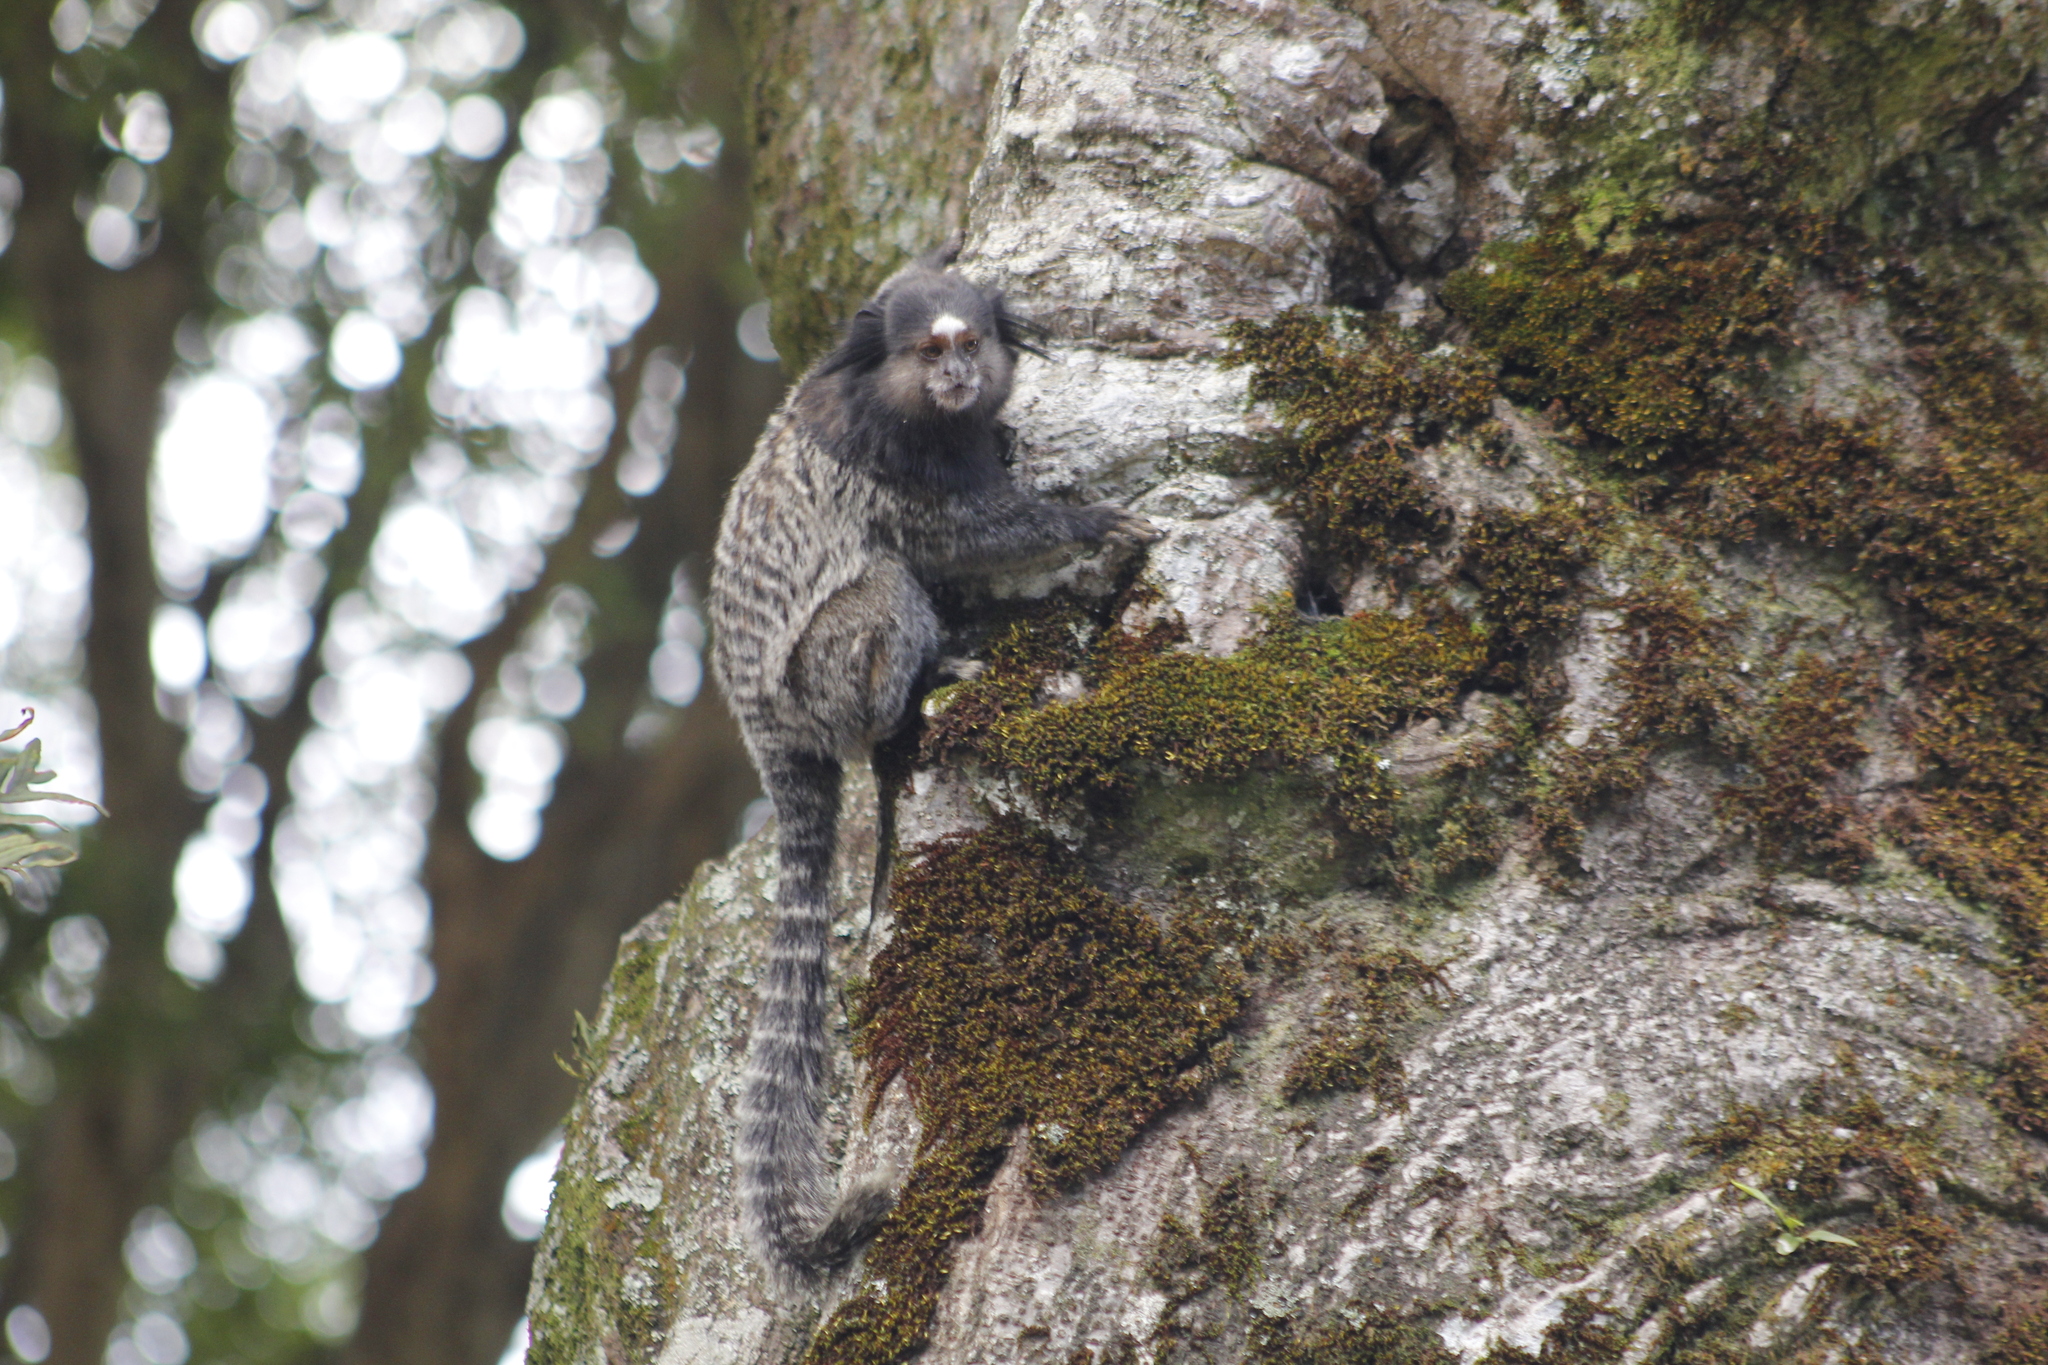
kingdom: Animalia
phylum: Chordata
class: Mammalia
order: Primates
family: Callitrichidae
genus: Callithrix
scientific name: Callithrix penicillata
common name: Black-tufted marmoset
